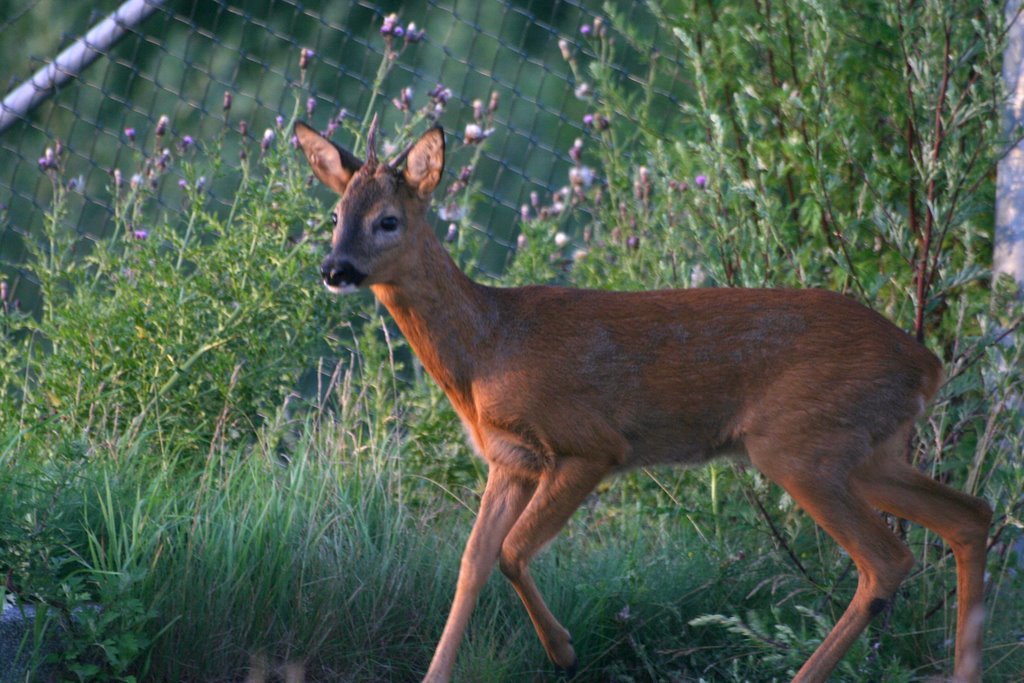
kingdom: Animalia
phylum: Chordata
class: Mammalia
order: Artiodactyla
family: Cervidae
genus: Capreolus
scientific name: Capreolus capreolus
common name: Western roe deer
